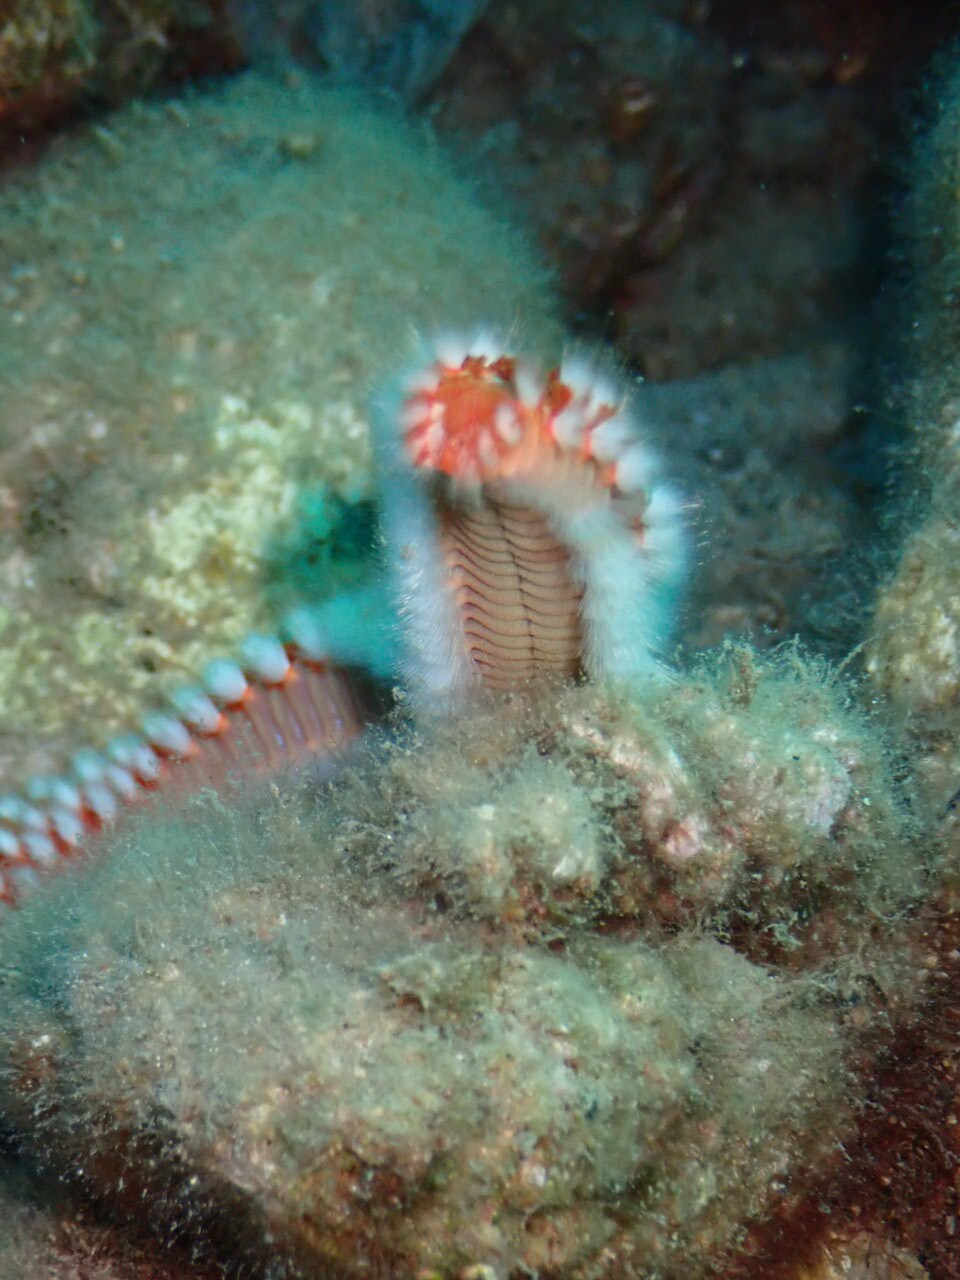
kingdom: Animalia
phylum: Annelida
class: Polychaeta
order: Amphinomida
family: Amphinomidae
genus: Hermodice
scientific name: Hermodice carunculata
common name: Bearded fireworm
